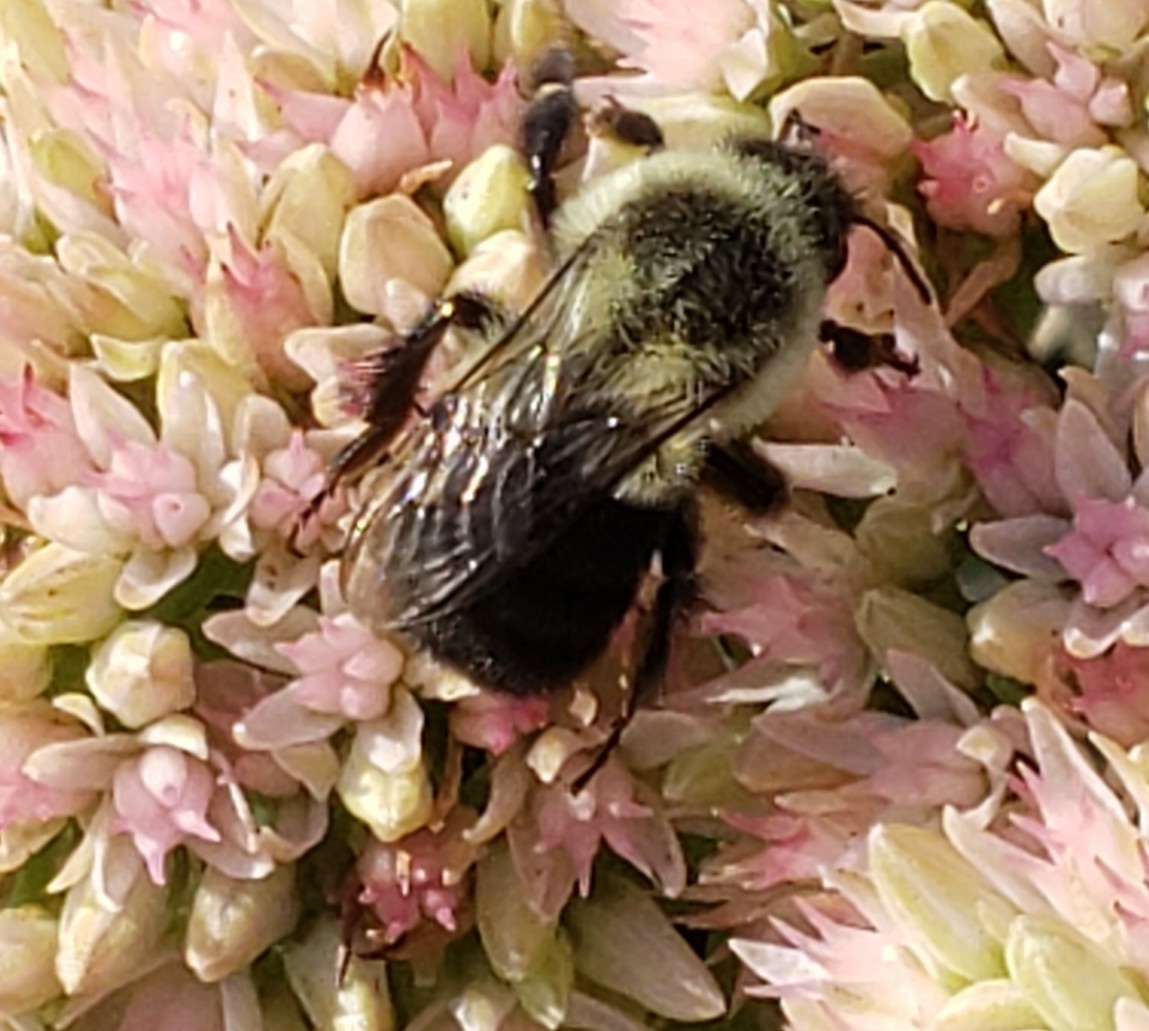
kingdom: Animalia
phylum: Arthropoda
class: Insecta
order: Hymenoptera
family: Apidae
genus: Bombus
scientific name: Bombus impatiens
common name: Common eastern bumble bee
